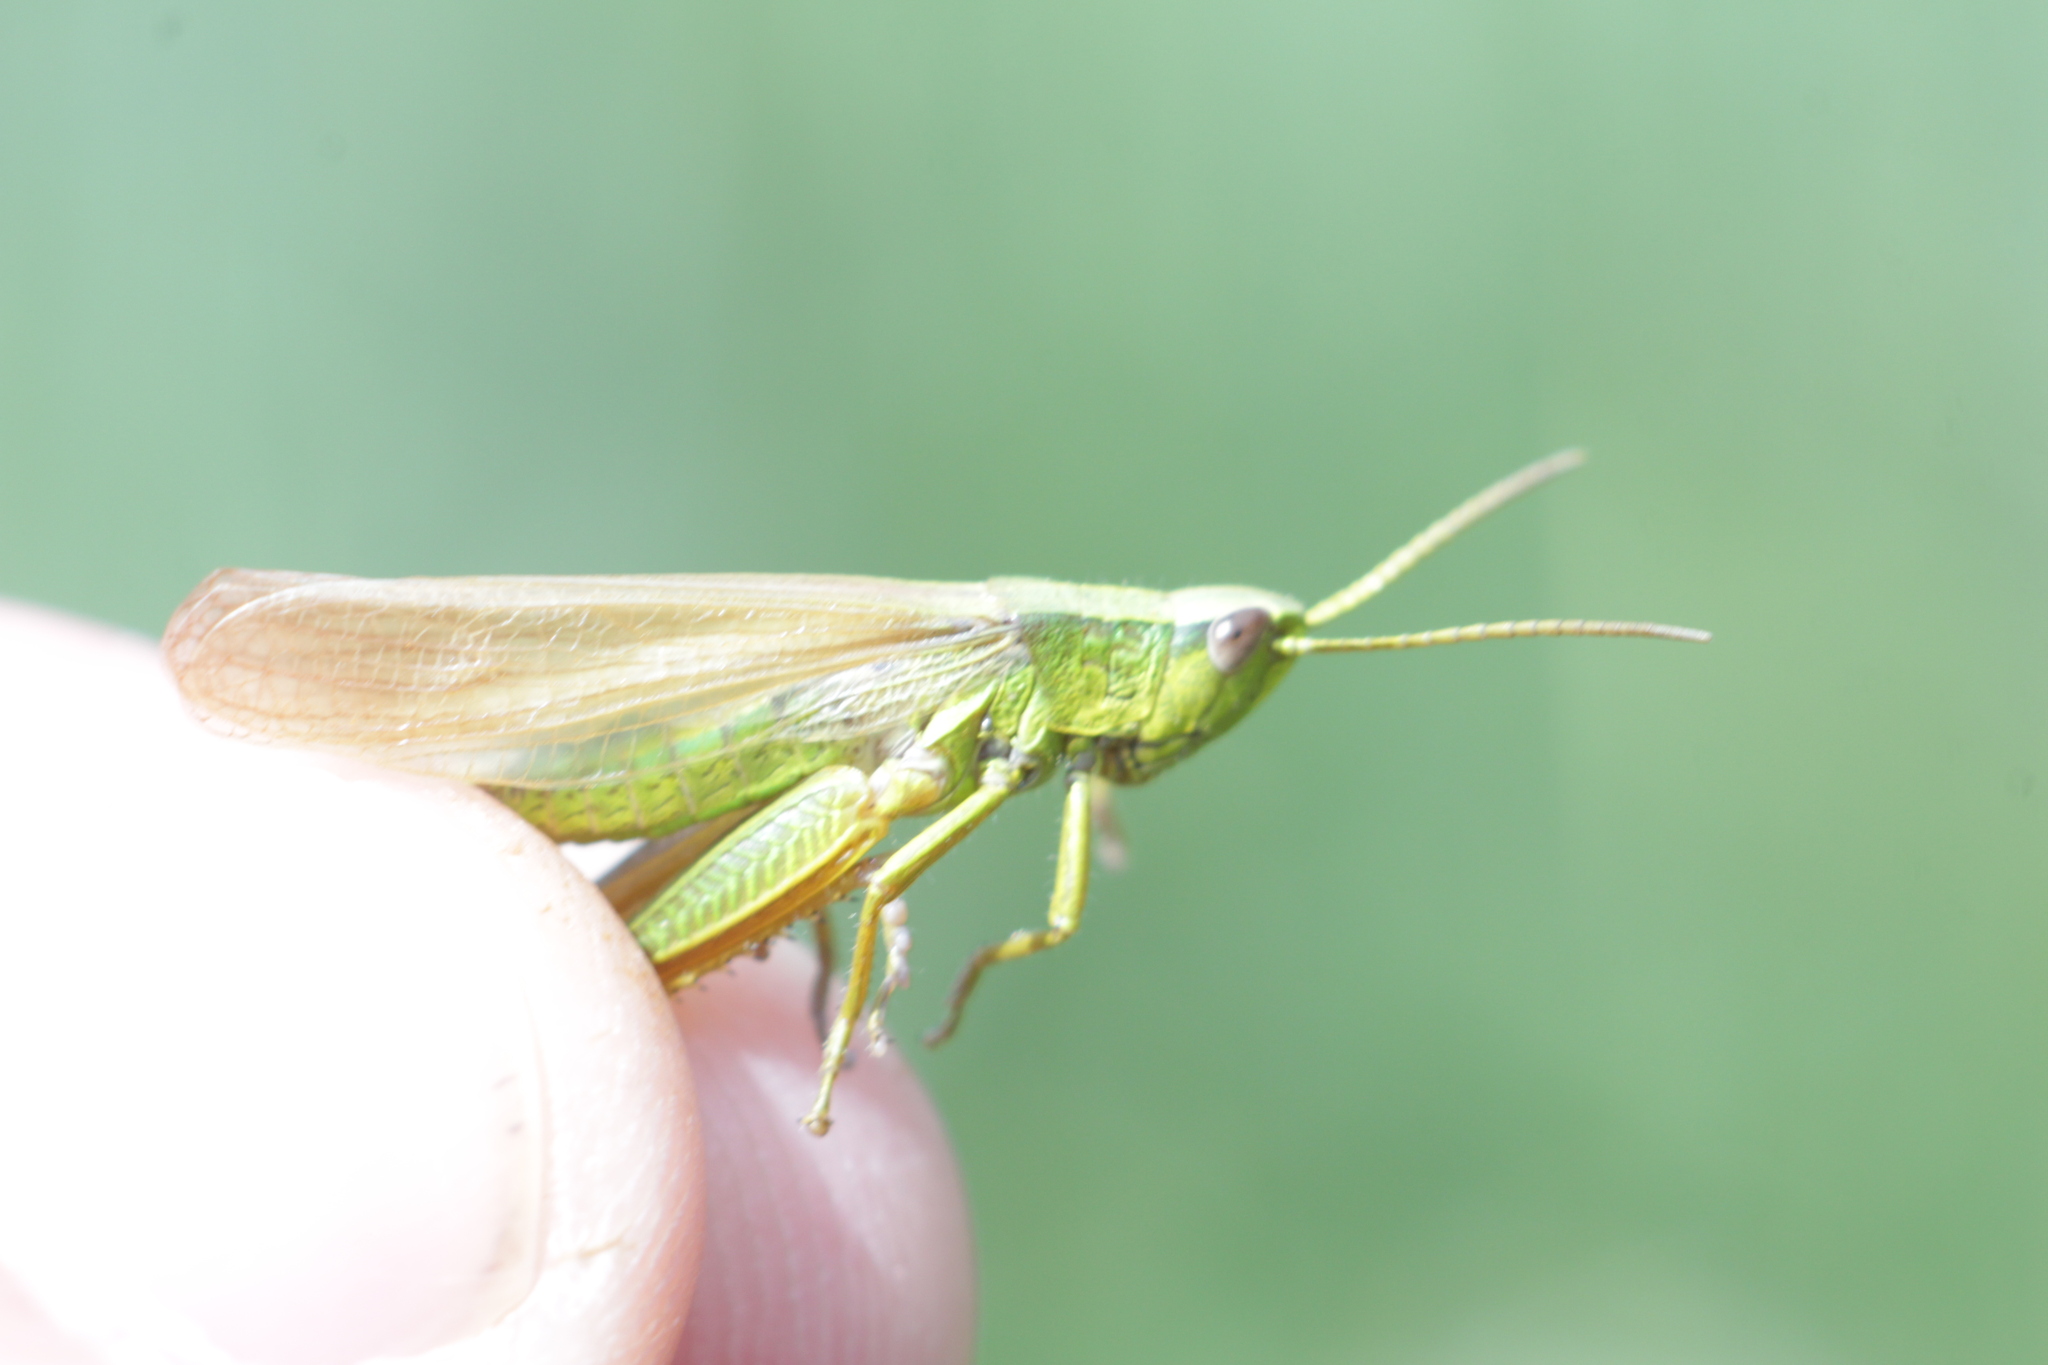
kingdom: Animalia
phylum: Arthropoda
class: Insecta
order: Orthoptera
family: Acrididae
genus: Chrysochraon
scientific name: Chrysochraon dispar
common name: Large gold grasshopper
